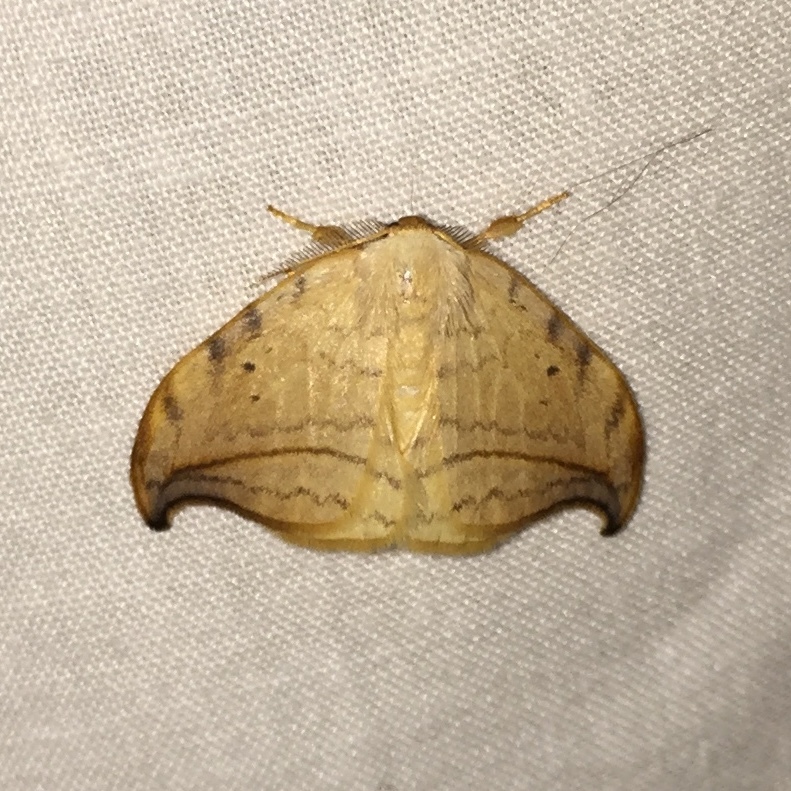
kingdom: Animalia
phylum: Arthropoda
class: Insecta
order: Lepidoptera
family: Drepanidae
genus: Drepana
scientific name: Drepana arcuata
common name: Arched hooktip moth
